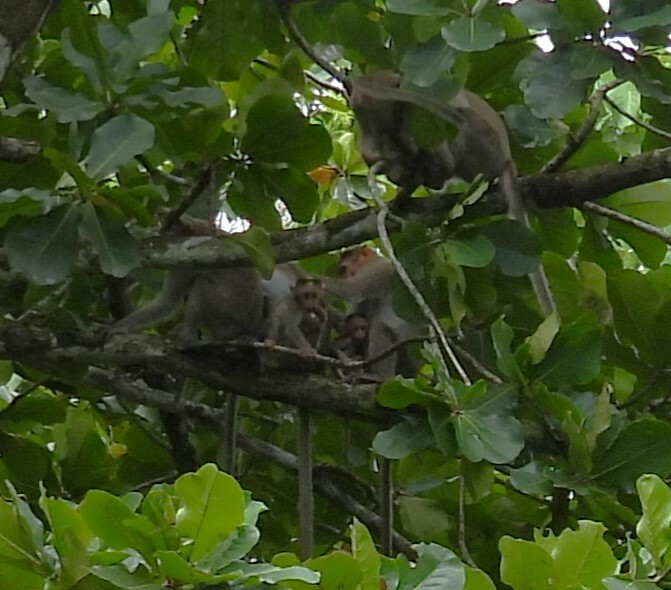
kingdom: Animalia
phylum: Chordata
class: Mammalia
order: Primates
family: Cercopithecidae
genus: Macaca
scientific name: Macaca radiata
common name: Bonnet macaque
